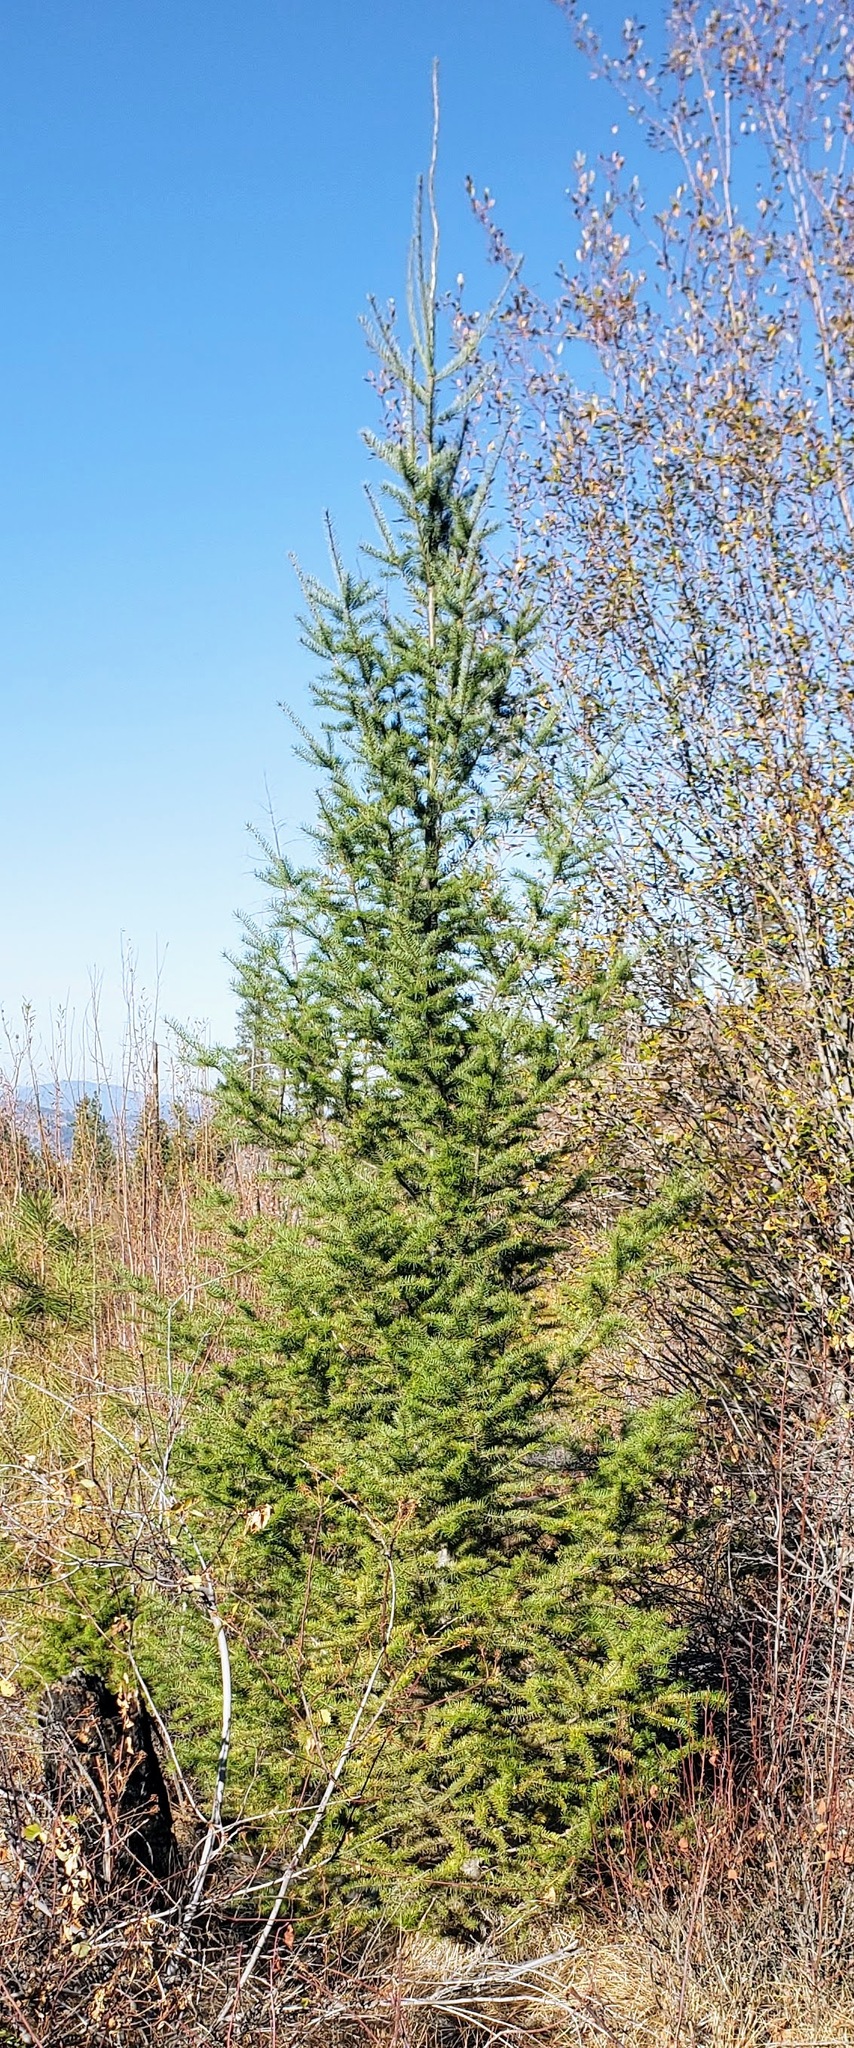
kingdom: Plantae
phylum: Tracheophyta
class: Pinopsida
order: Pinales
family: Pinaceae
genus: Pseudotsuga
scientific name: Pseudotsuga menziesii
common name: Douglas fir
